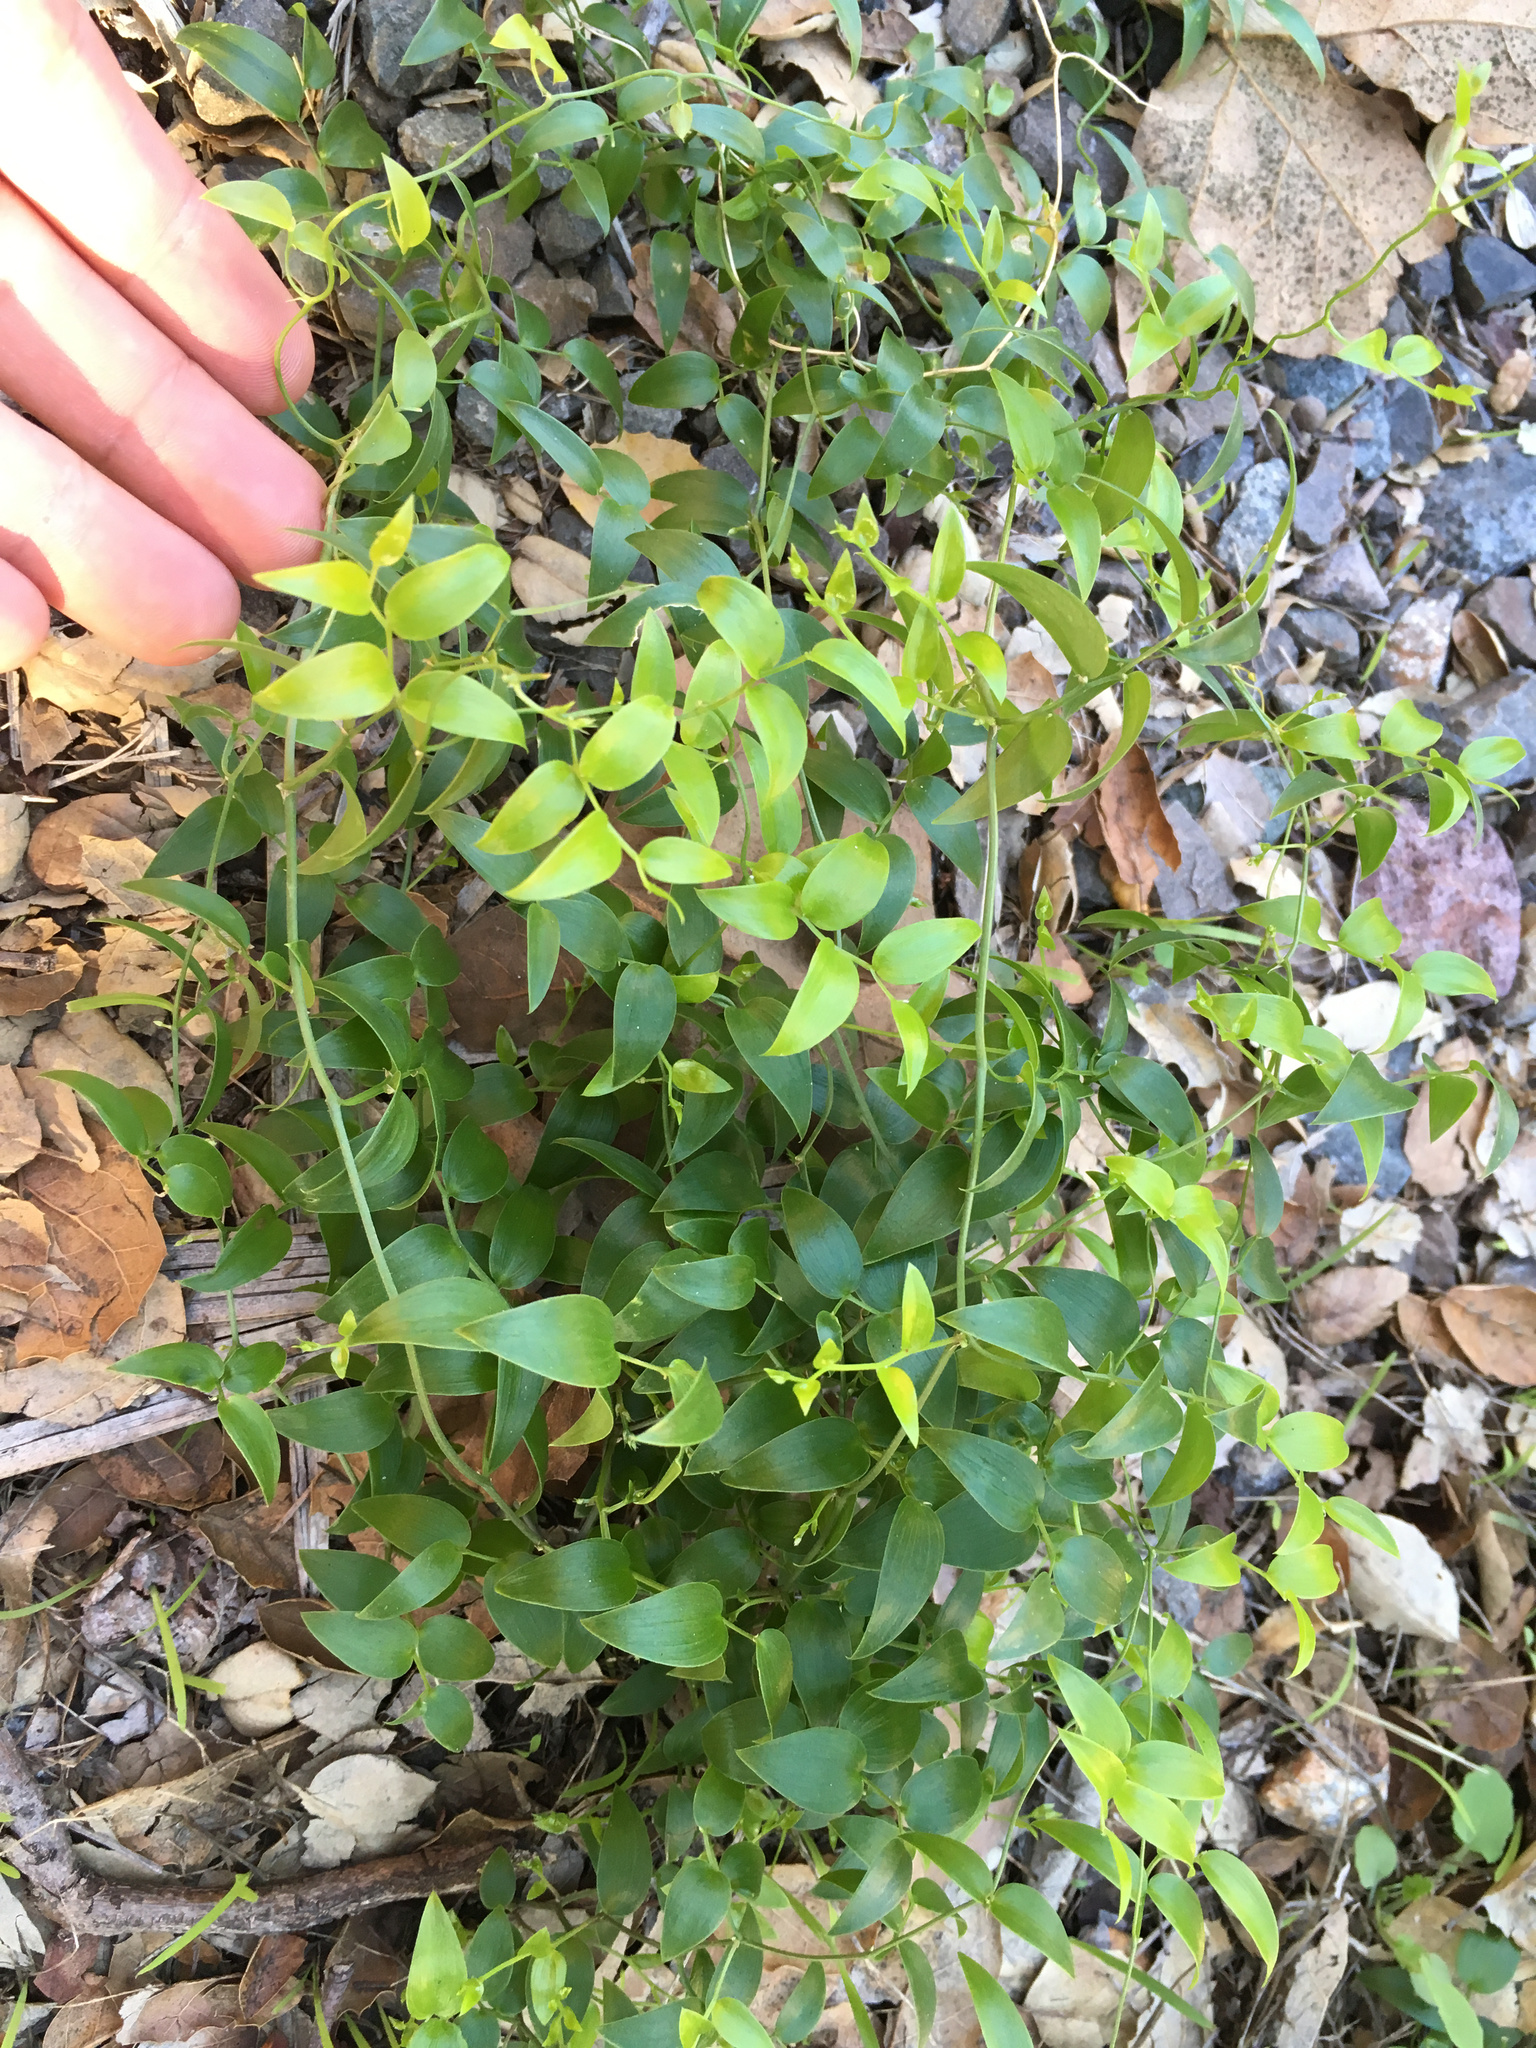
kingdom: Plantae
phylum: Tracheophyta
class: Liliopsida
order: Asparagales
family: Asparagaceae
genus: Asparagus
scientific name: Asparagus asparagoides
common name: African asparagus fern
